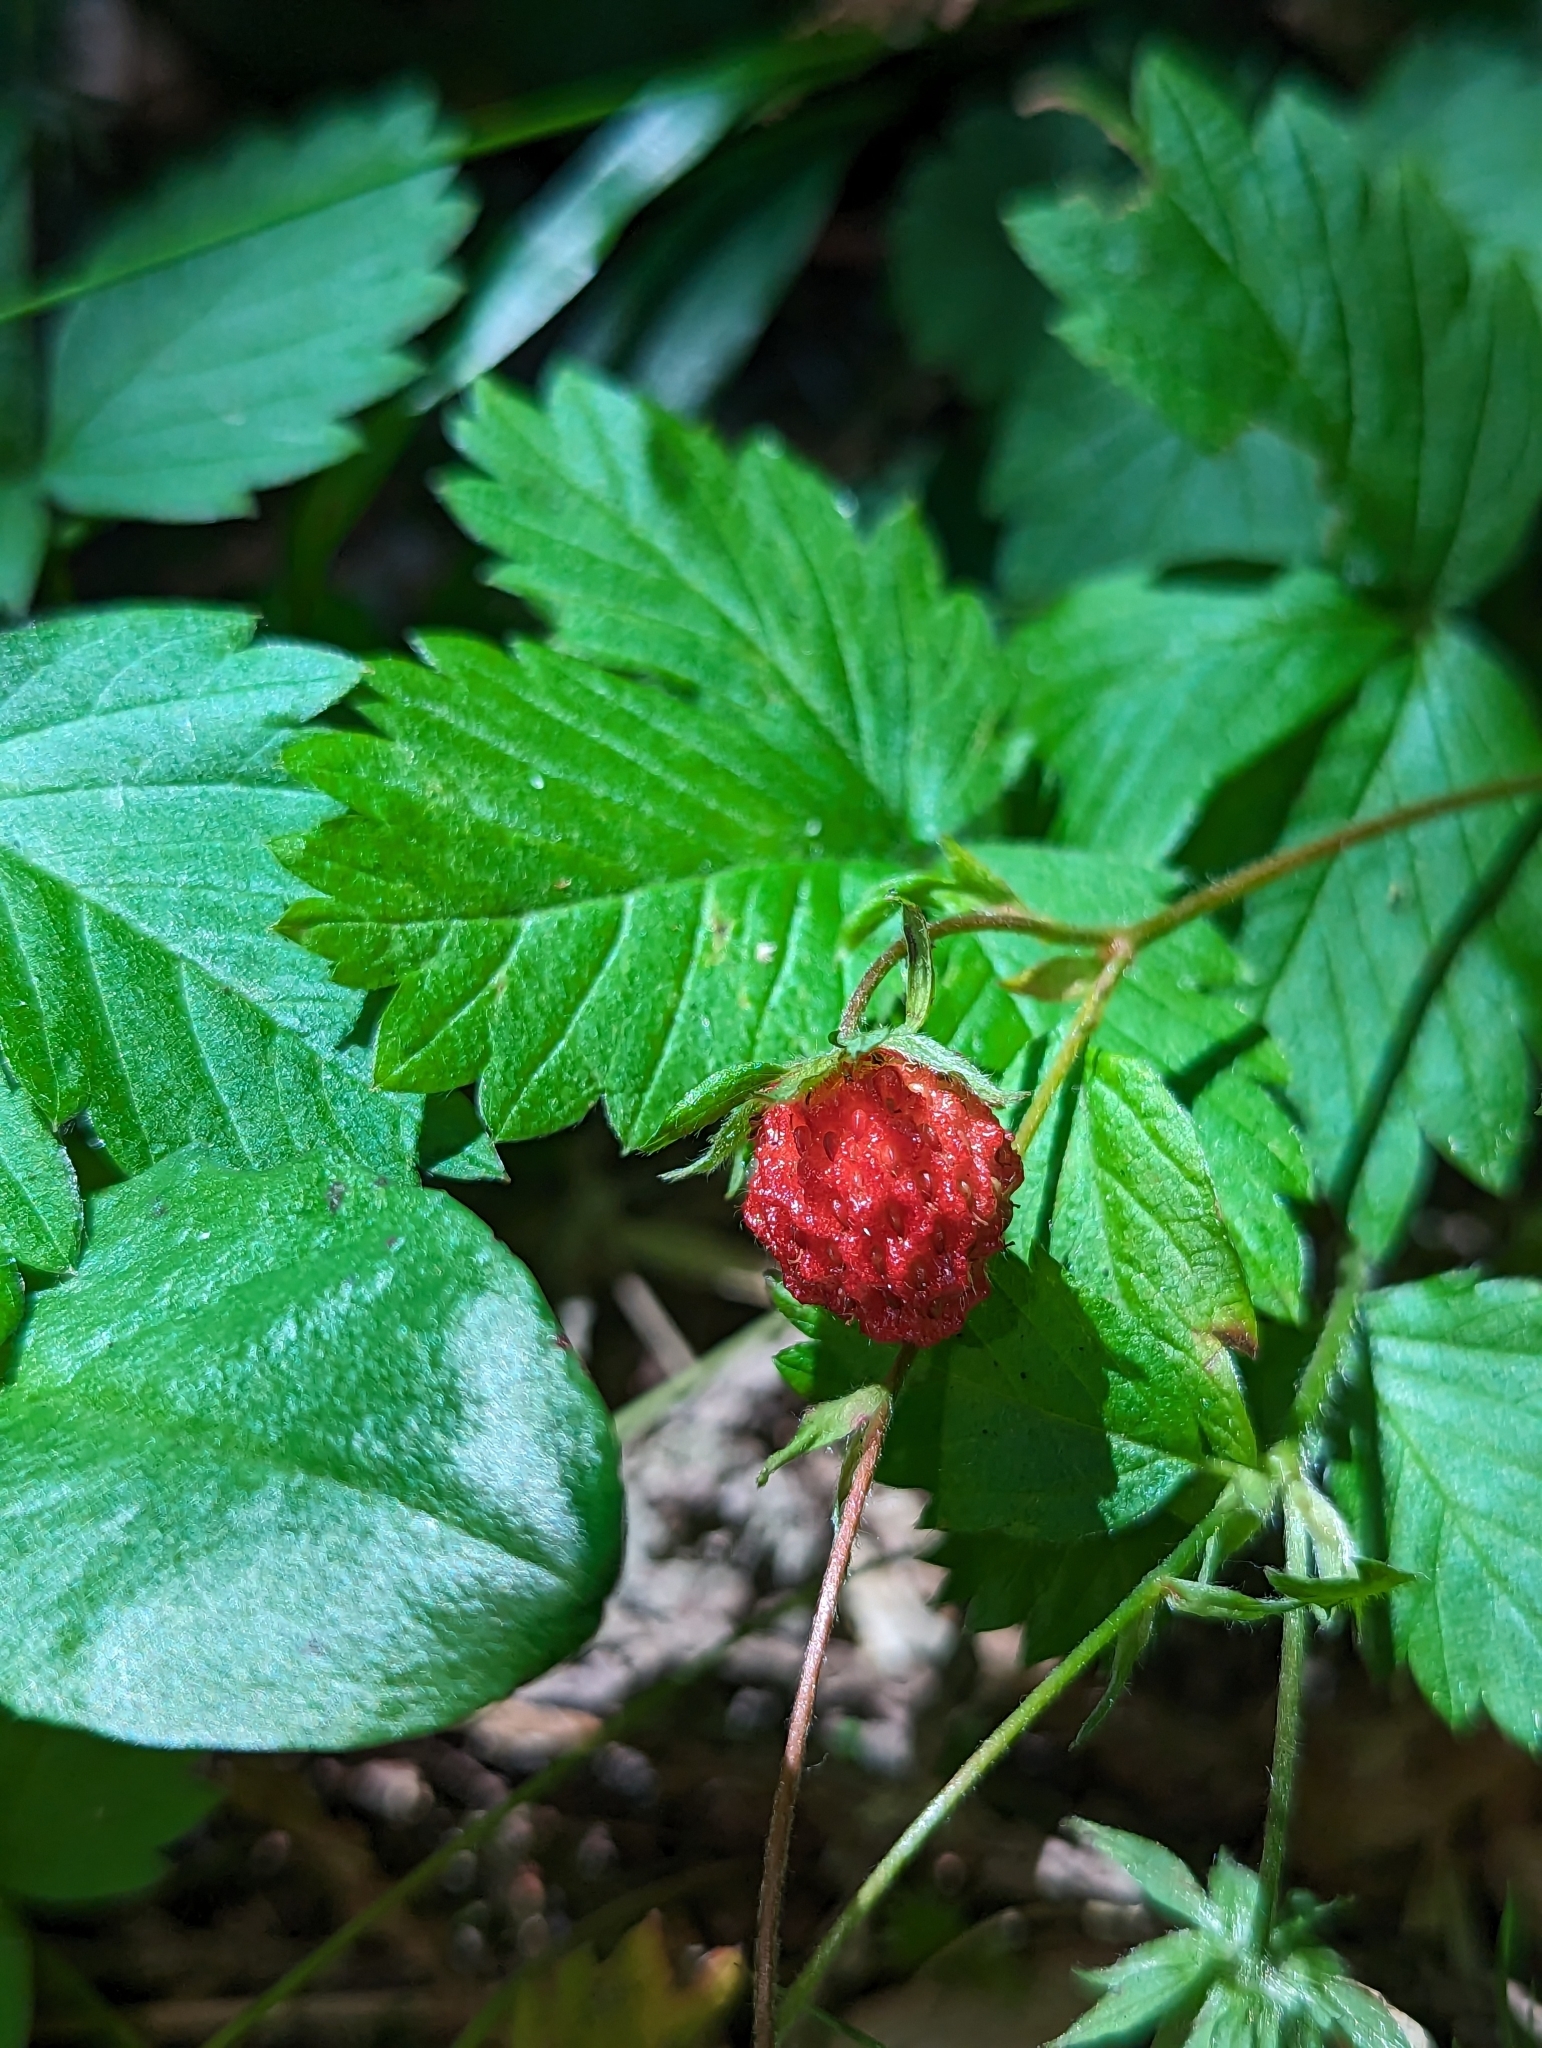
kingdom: Plantae
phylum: Tracheophyta
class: Magnoliopsida
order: Rosales
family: Rosaceae
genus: Fragaria
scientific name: Fragaria vesca
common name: Wild strawberry
